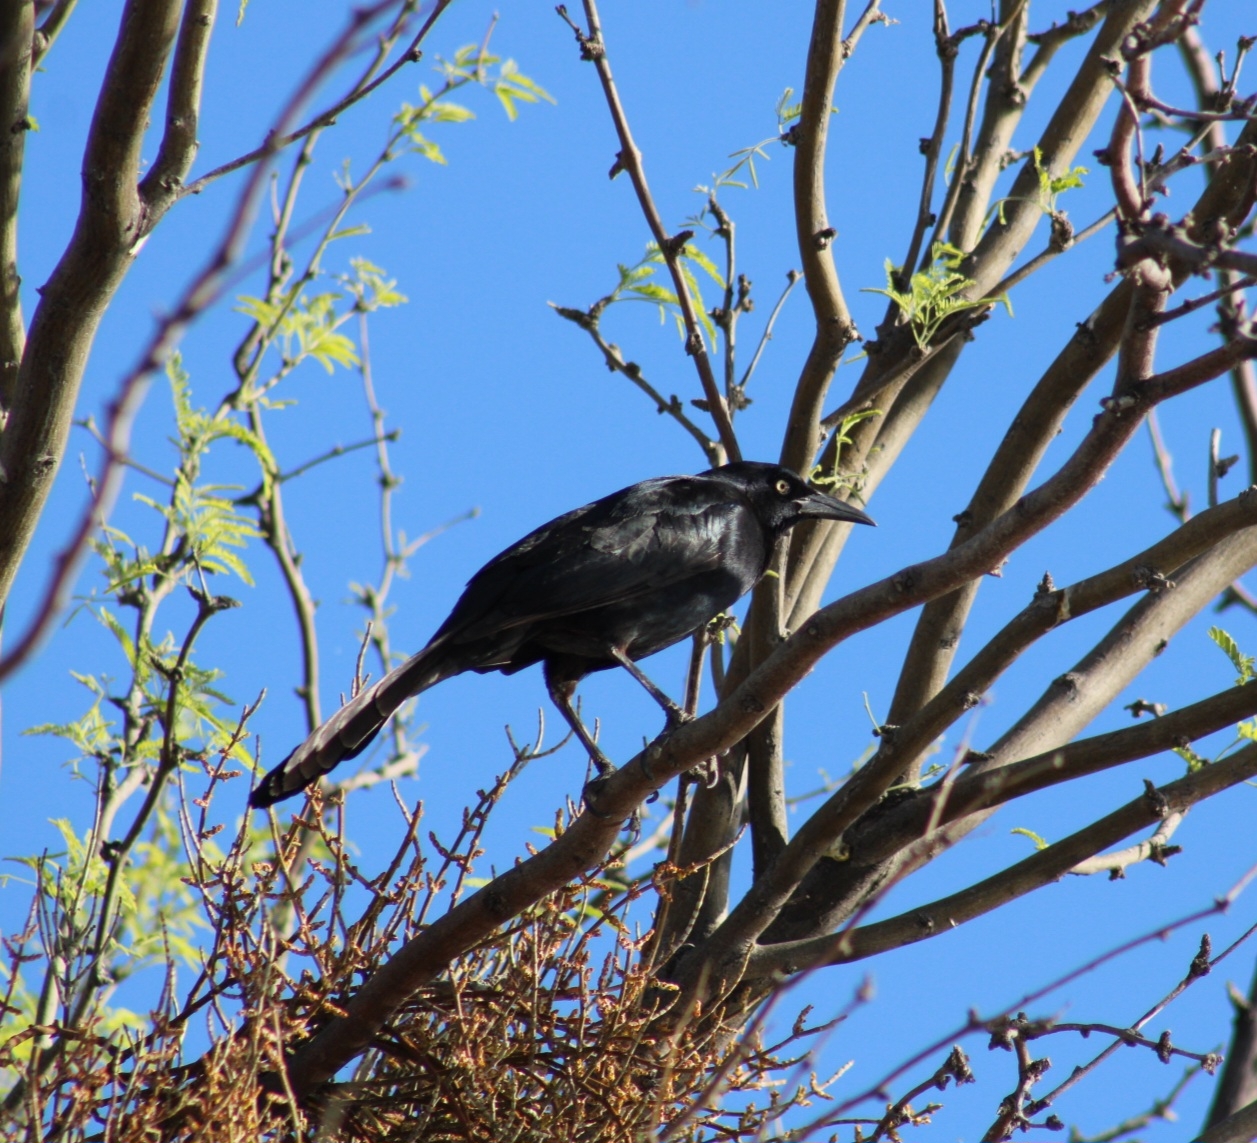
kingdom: Animalia
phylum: Chordata
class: Aves
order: Passeriformes
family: Icteridae
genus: Quiscalus
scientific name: Quiscalus mexicanus
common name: Great-tailed grackle
